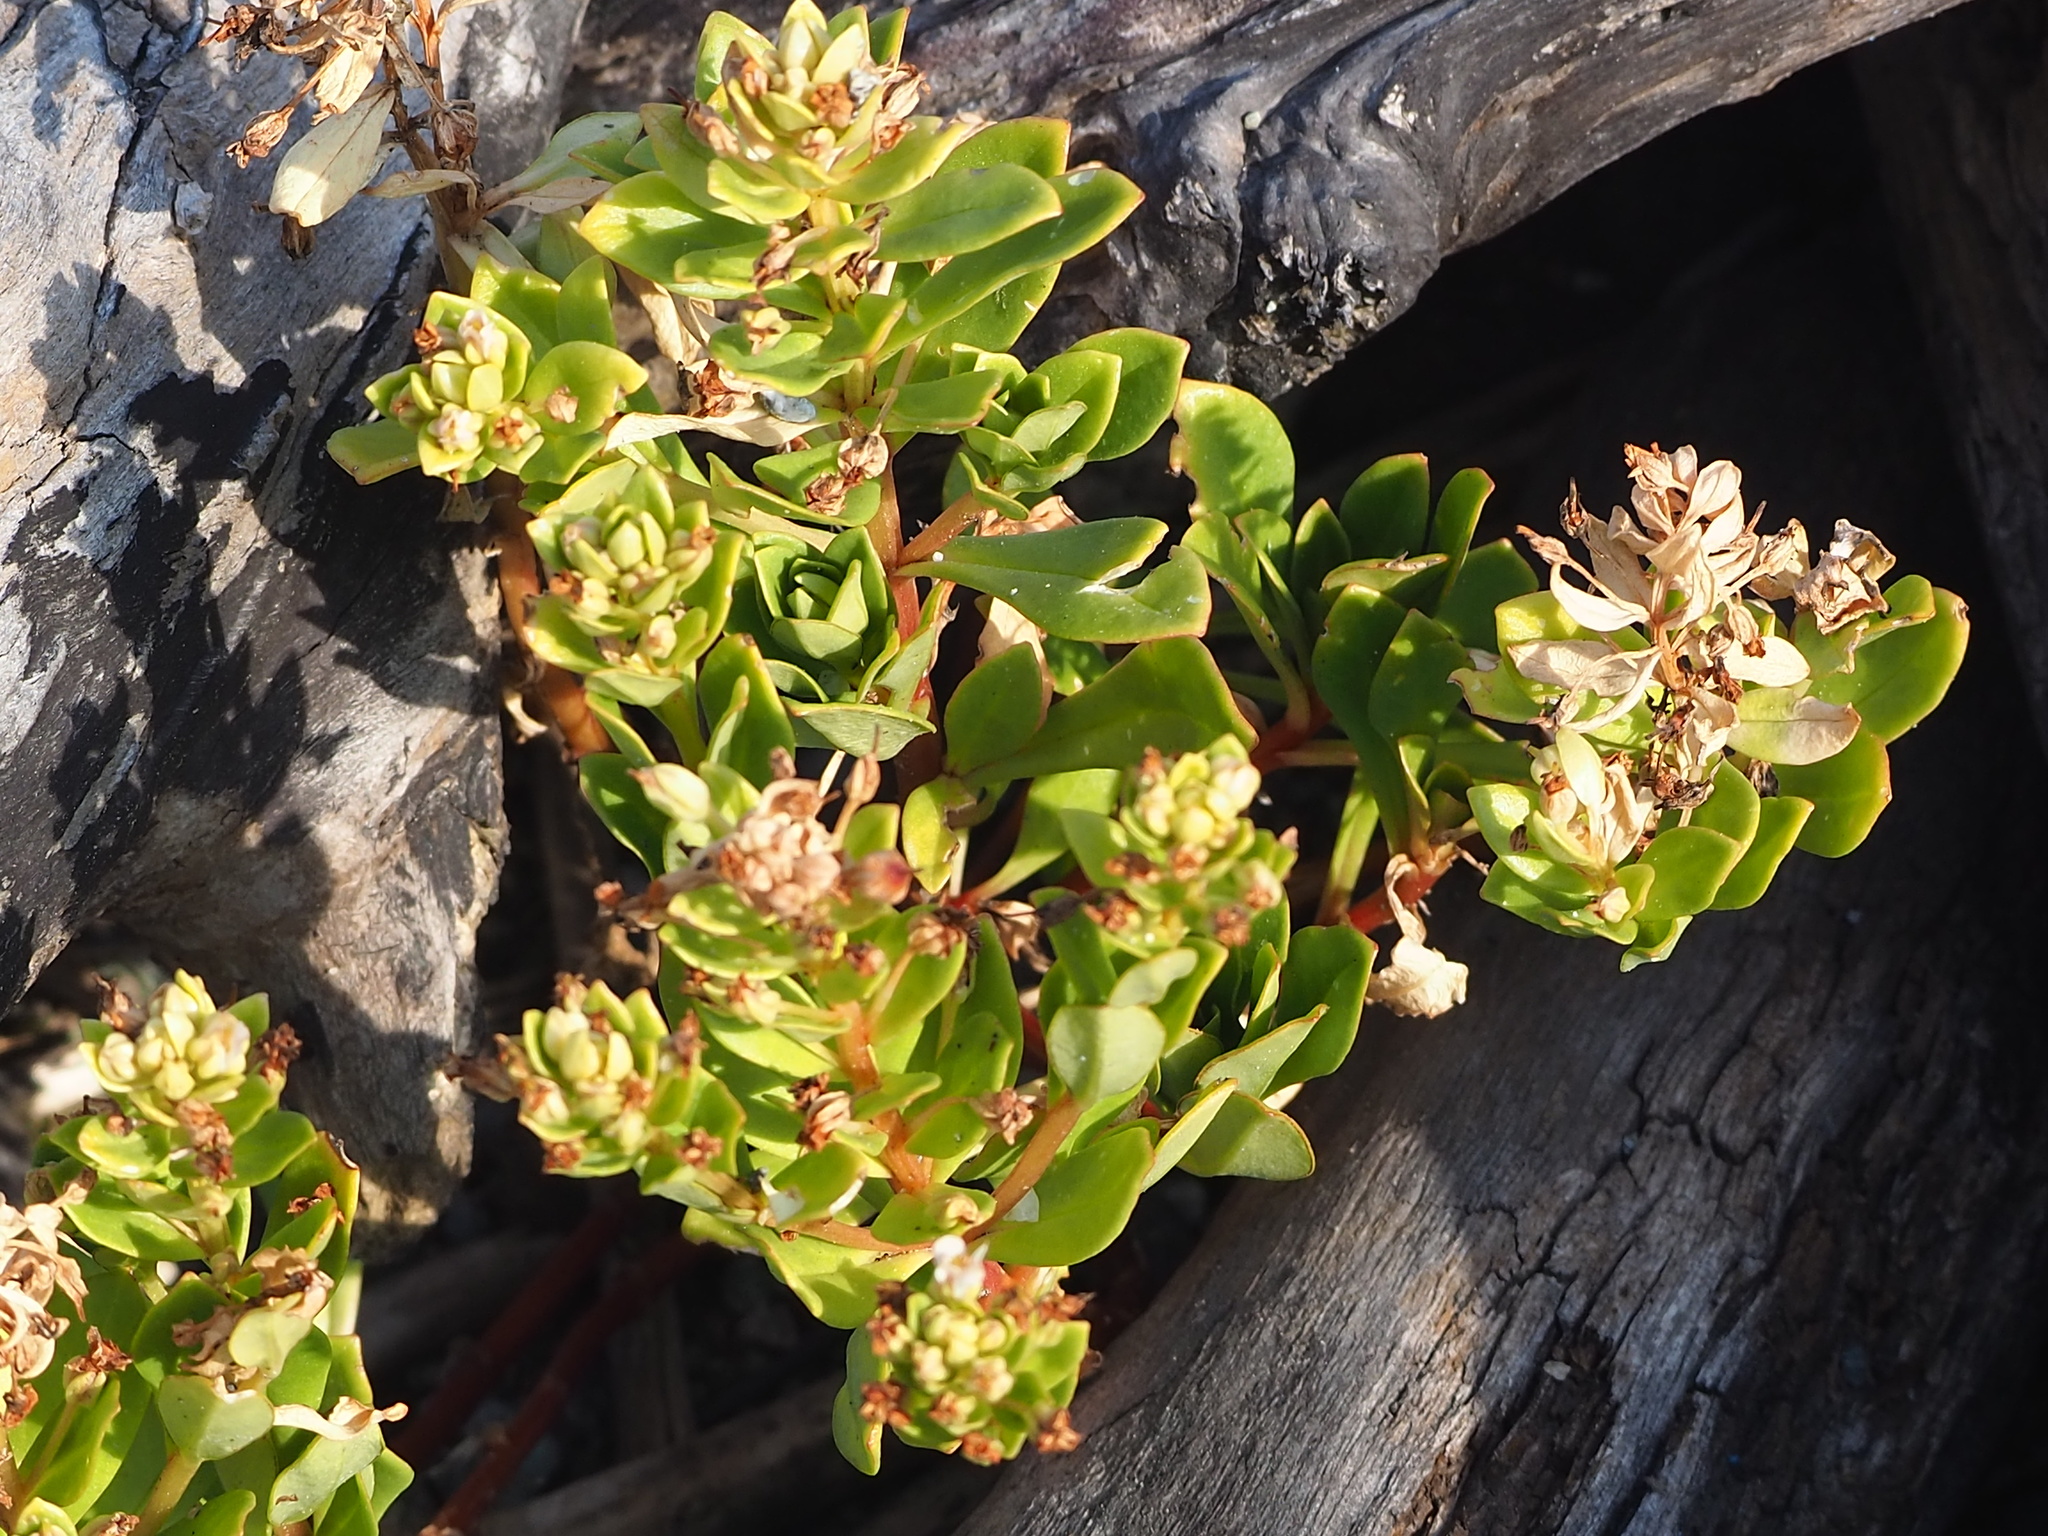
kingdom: Plantae
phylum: Tracheophyta
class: Magnoliopsida
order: Ericales
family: Primulaceae
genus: Lysimachia
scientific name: Lysimachia mauritiana
